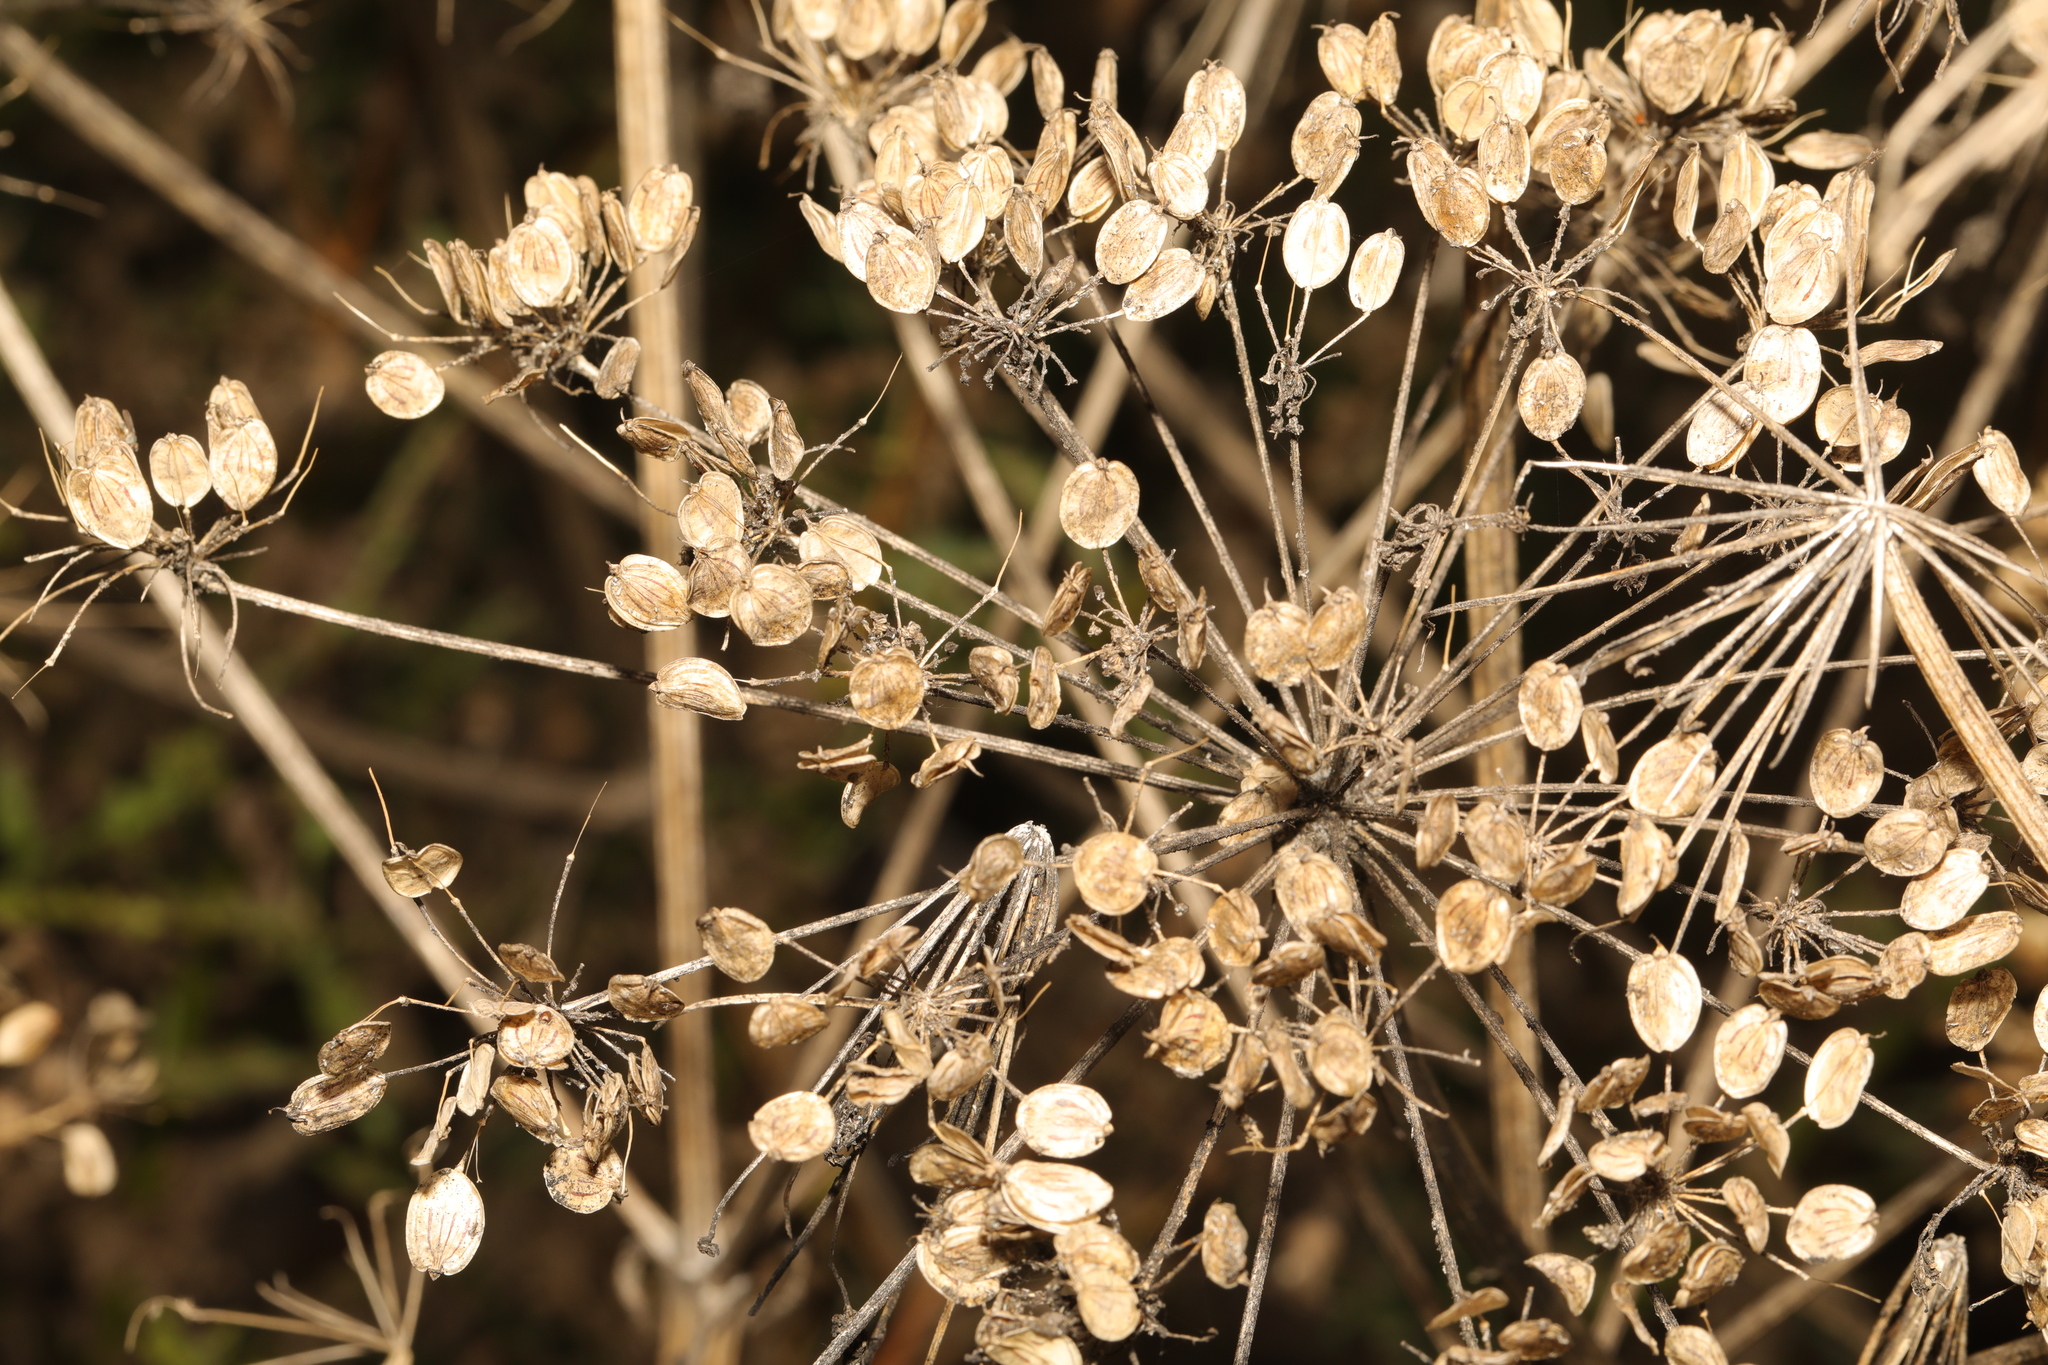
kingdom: Plantae
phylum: Tracheophyta
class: Magnoliopsida
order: Apiales
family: Apiaceae
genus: Heracleum
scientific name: Heracleum sphondylium
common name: Hogweed
